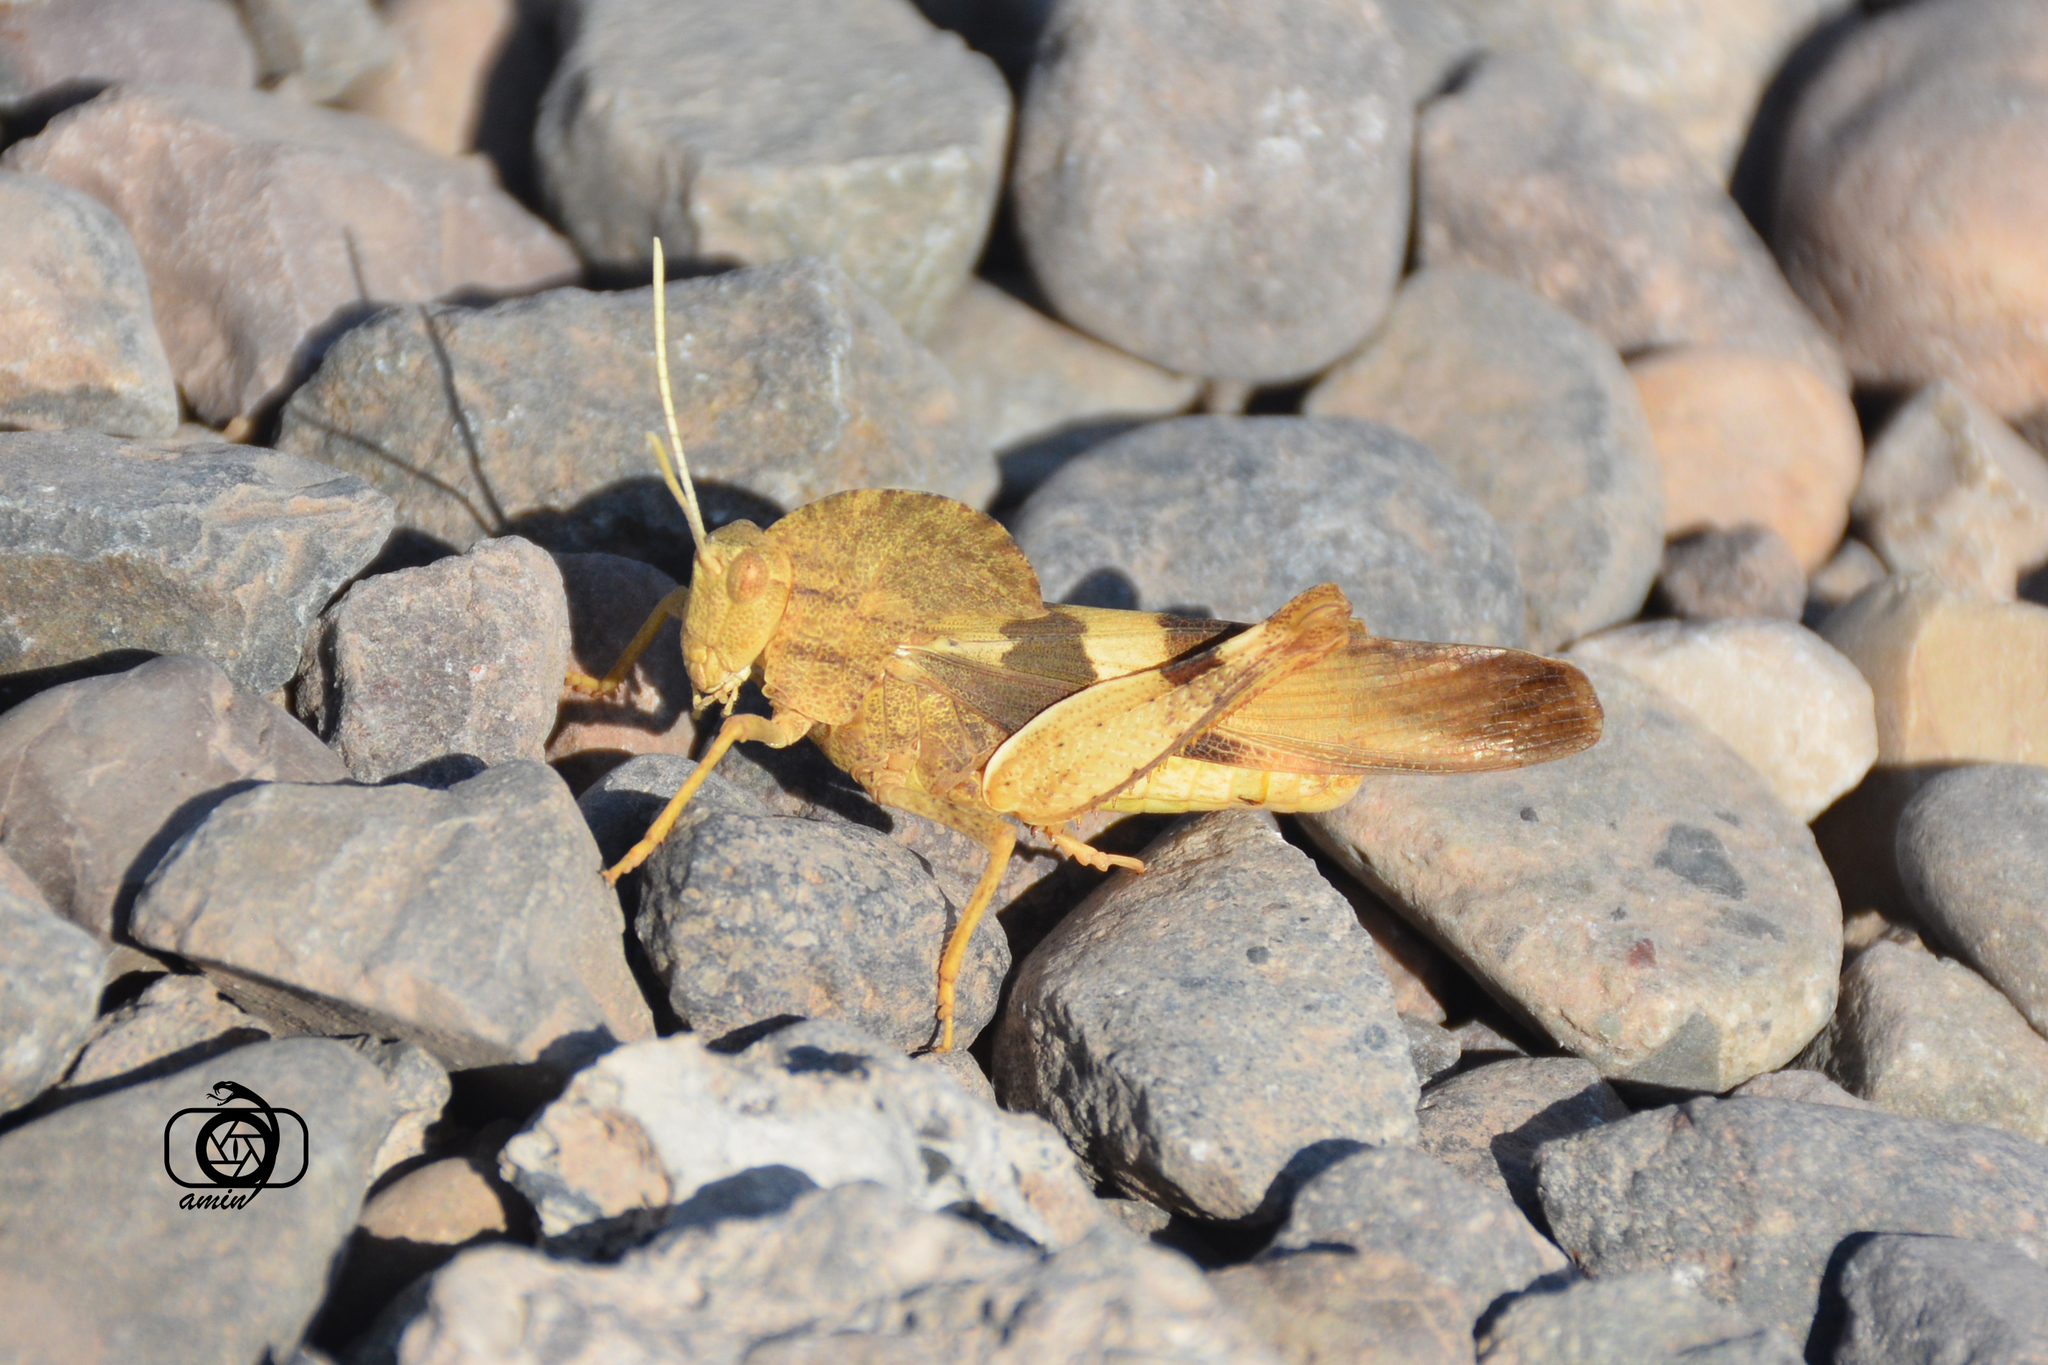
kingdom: Animalia
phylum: Arthropoda
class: Insecta
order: Orthoptera
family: Acrididae
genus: Pyrgodera
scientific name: Pyrgodera armata
